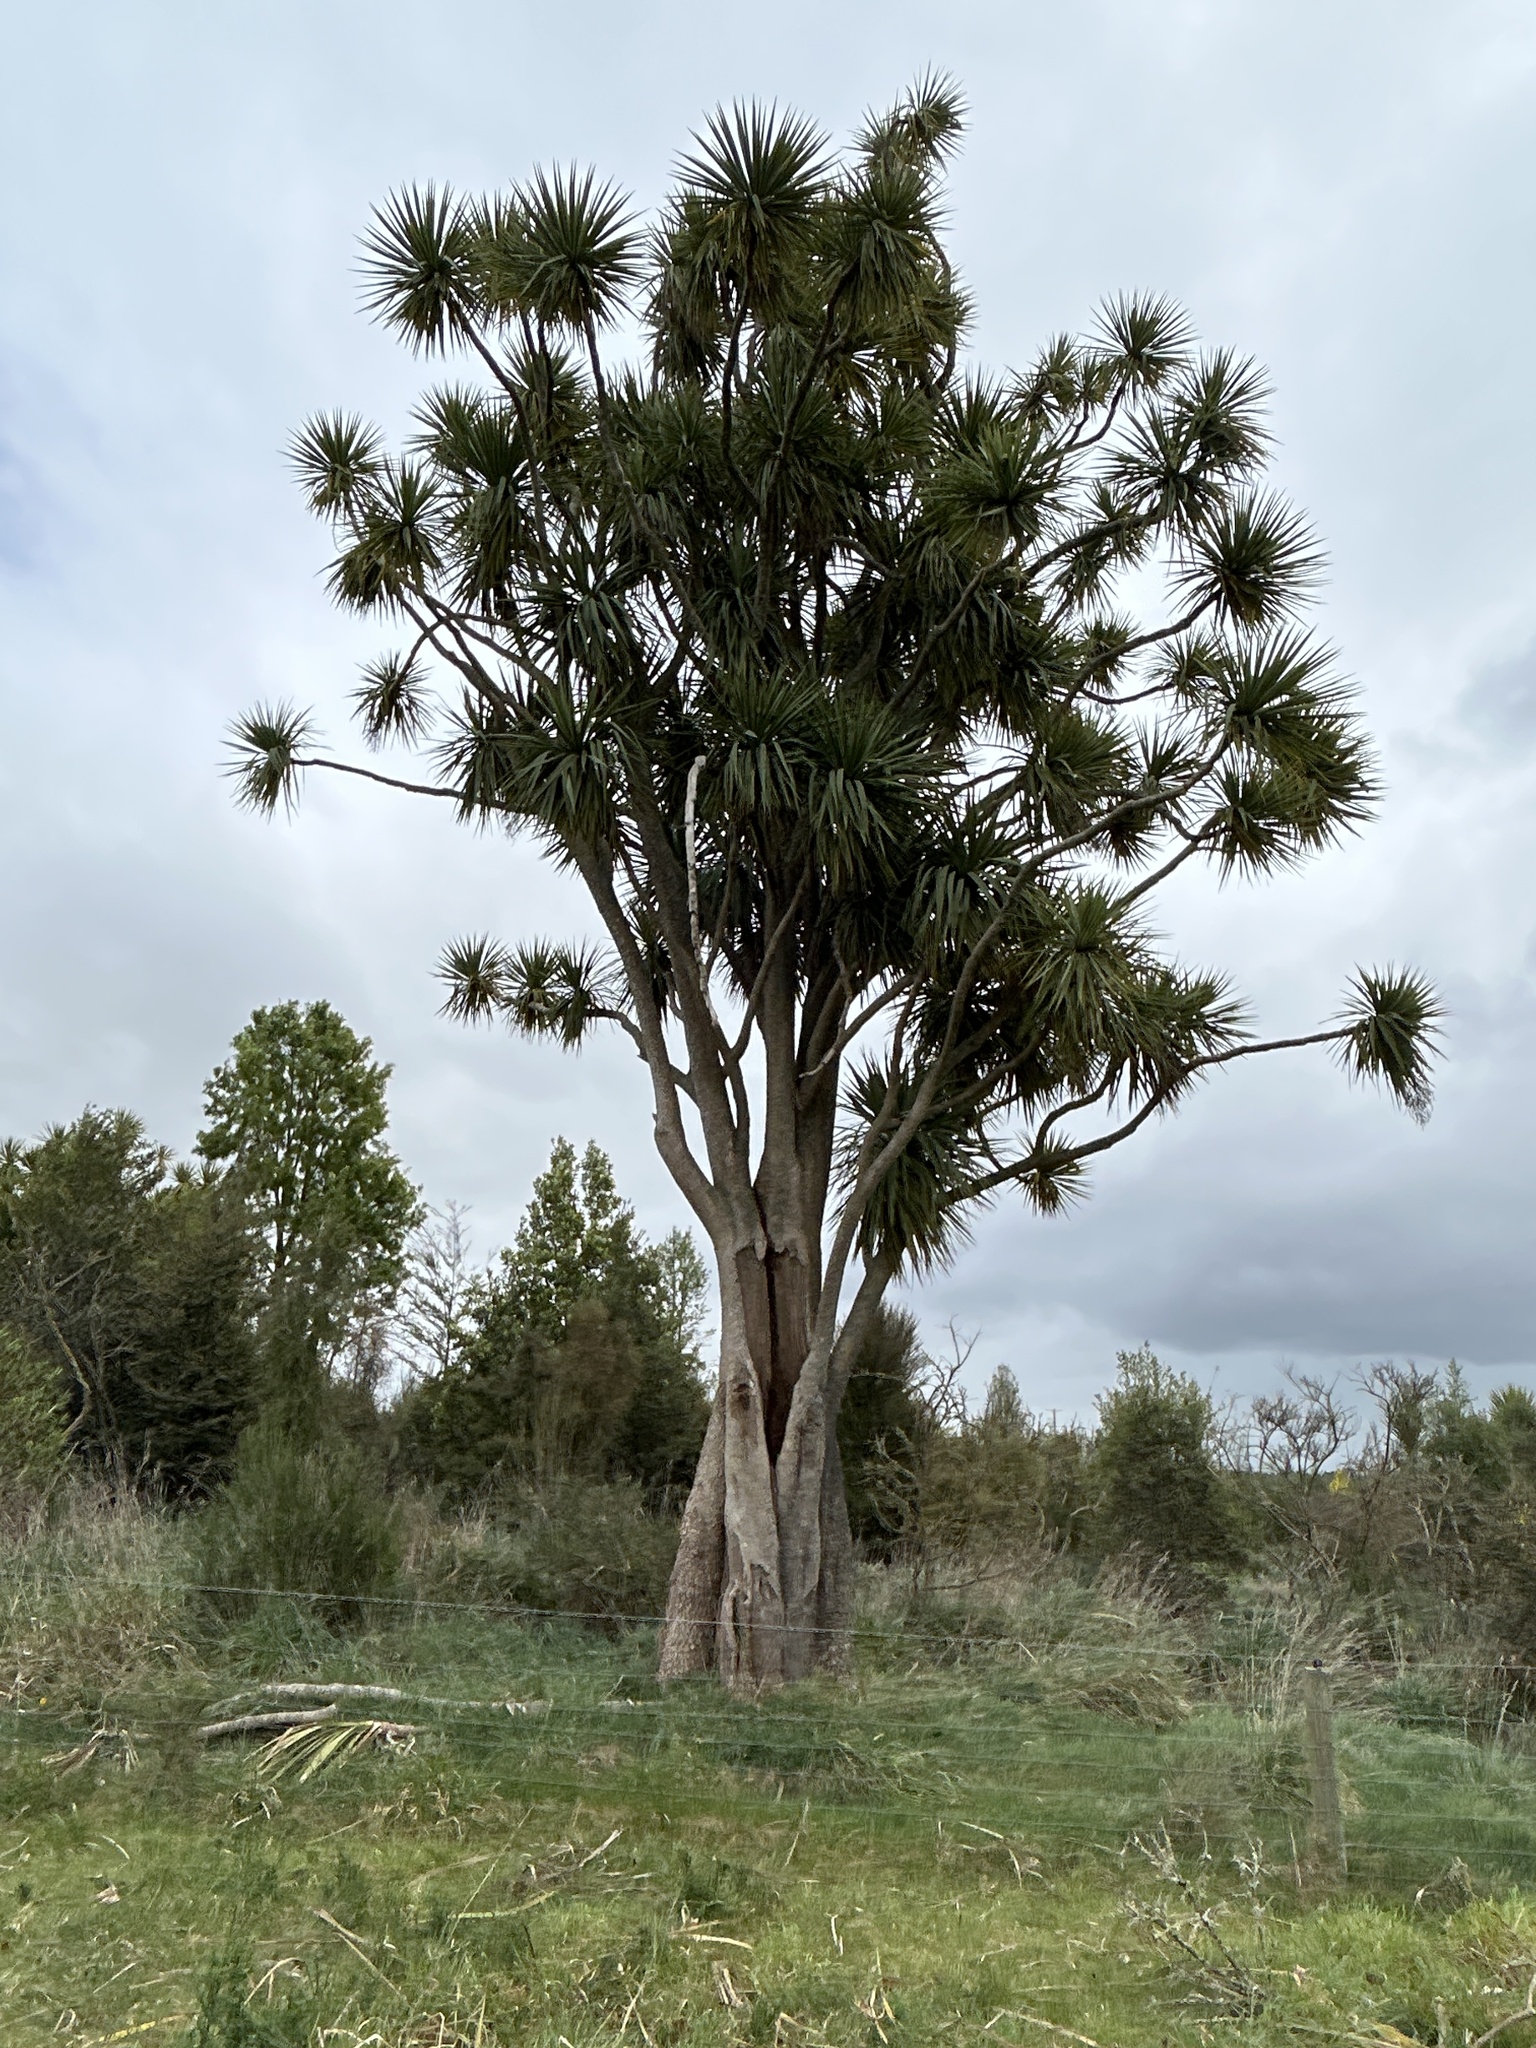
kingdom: Plantae
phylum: Tracheophyta
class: Liliopsida
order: Asparagales
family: Asparagaceae
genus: Cordyline
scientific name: Cordyline australis
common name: Cabbage-palm
